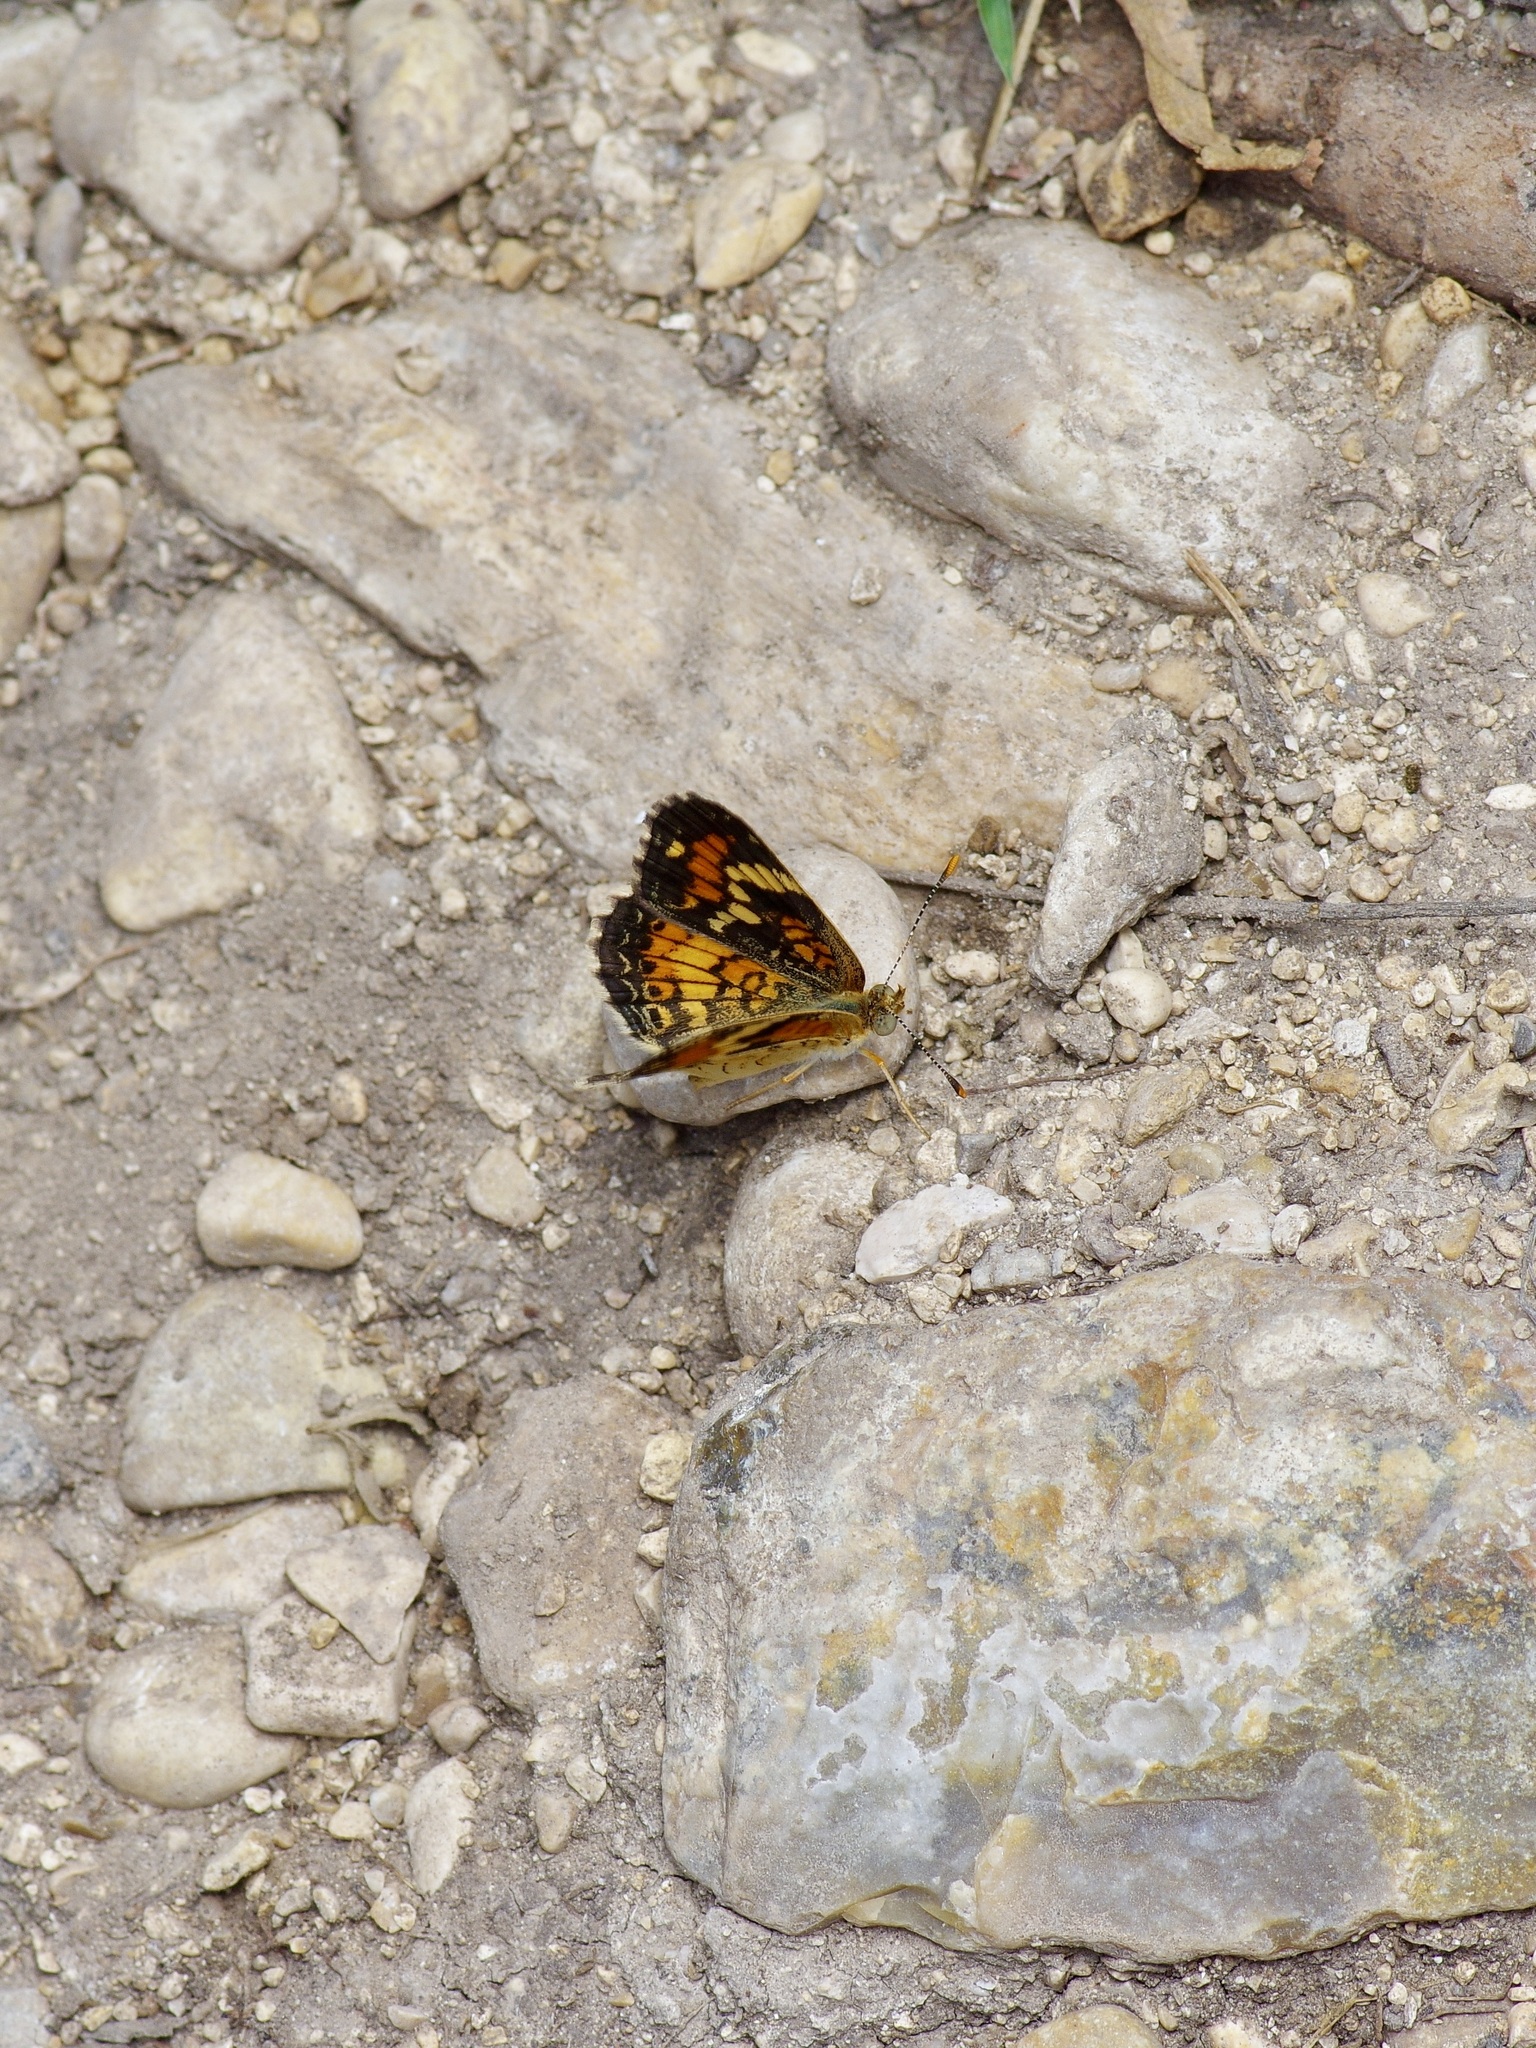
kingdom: Animalia
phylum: Arthropoda
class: Insecta
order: Lepidoptera
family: Nymphalidae
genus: Phyciodes
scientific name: Phyciodes phaon
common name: Phaon crescent
